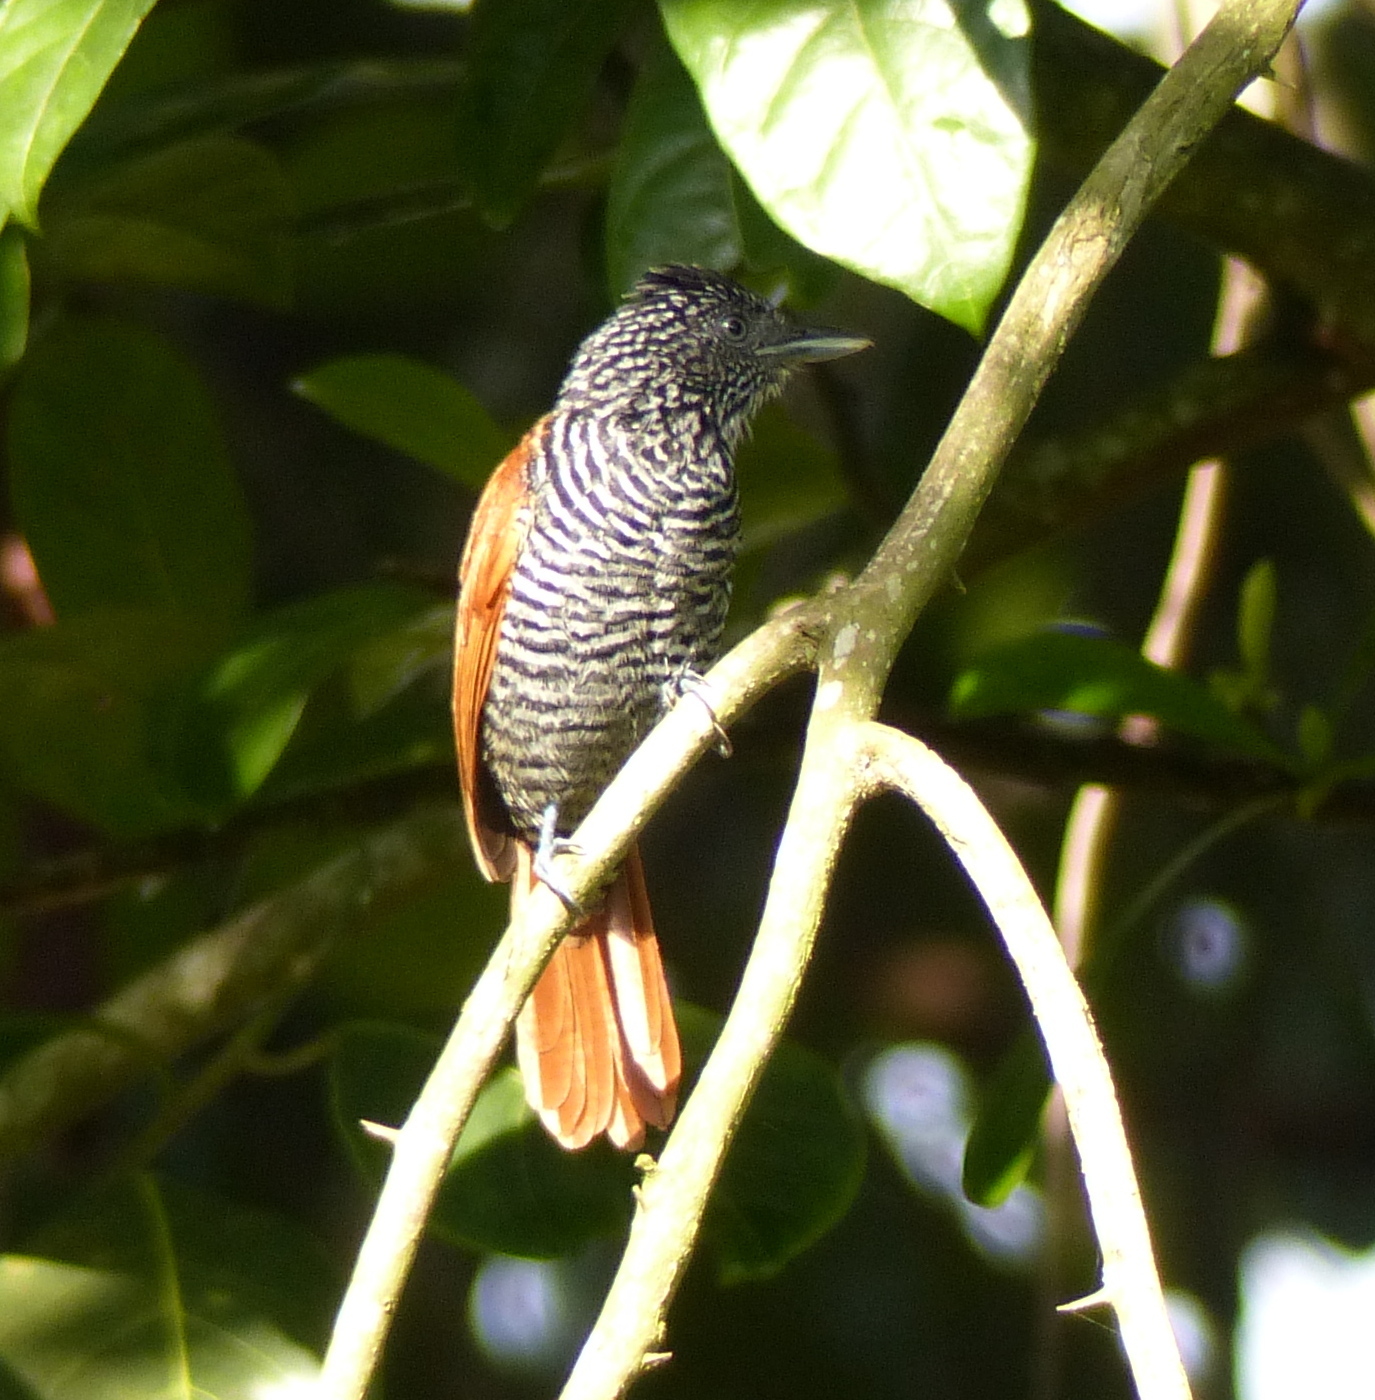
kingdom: Animalia
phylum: Chordata
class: Aves
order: Passeriformes
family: Thamnophilidae
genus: Thamnophilus
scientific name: Thamnophilus palliatus
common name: Chestnut-backed antshrike
